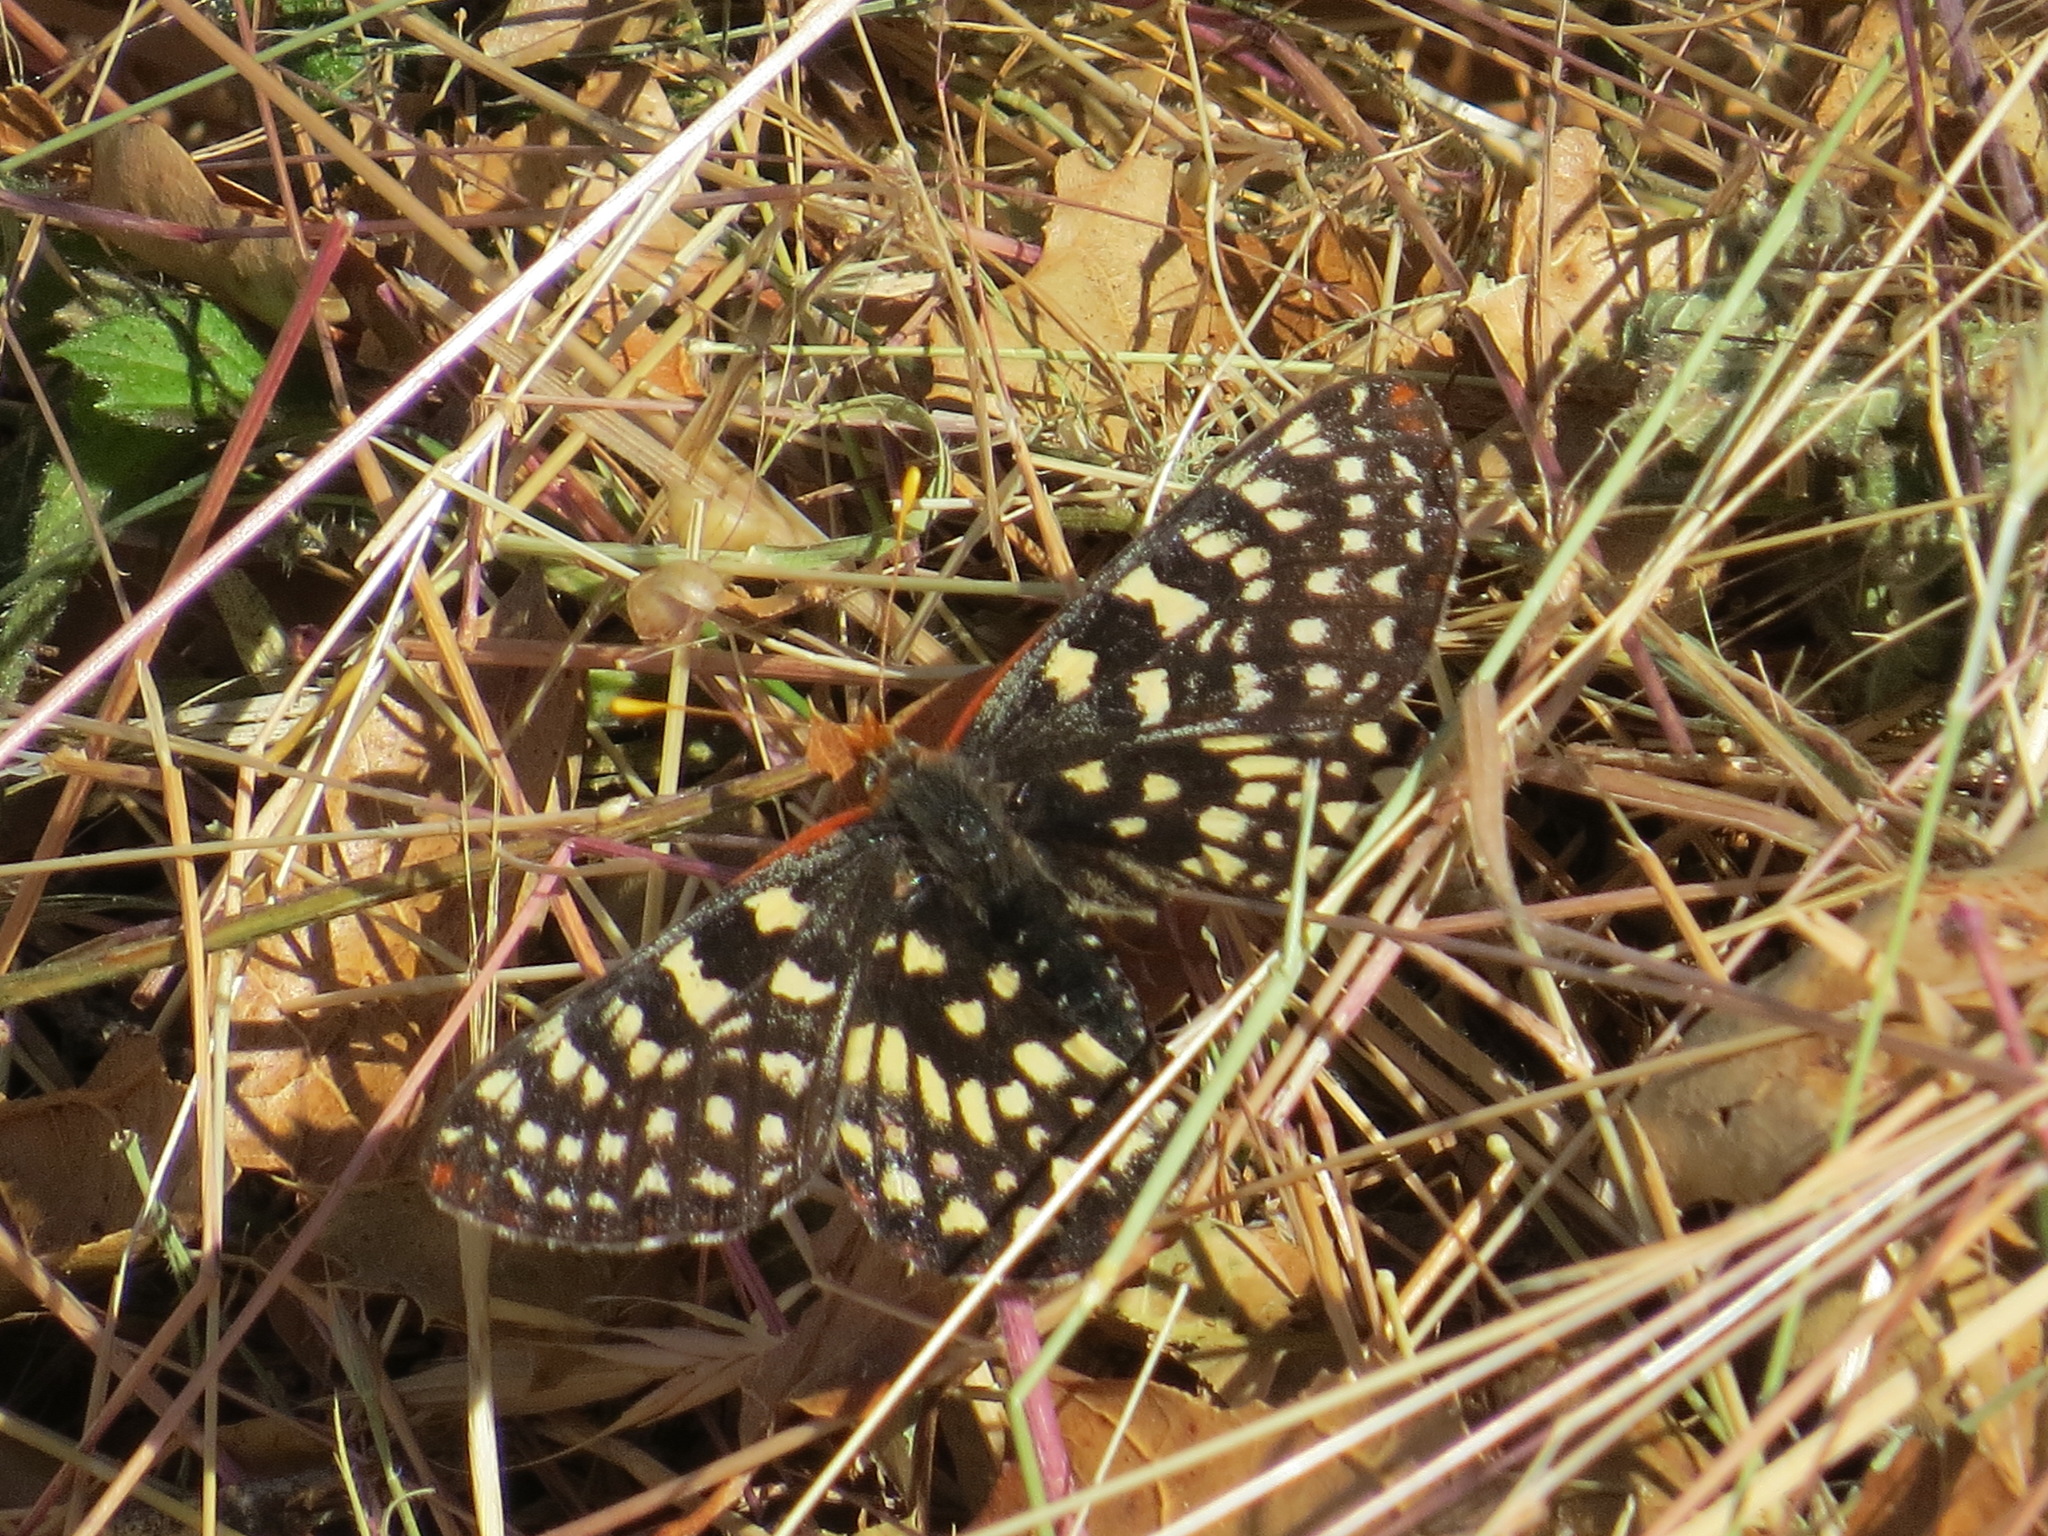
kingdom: Animalia
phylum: Arthropoda
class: Insecta
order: Lepidoptera
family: Nymphalidae
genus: Occidryas
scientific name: Occidryas chalcedona
